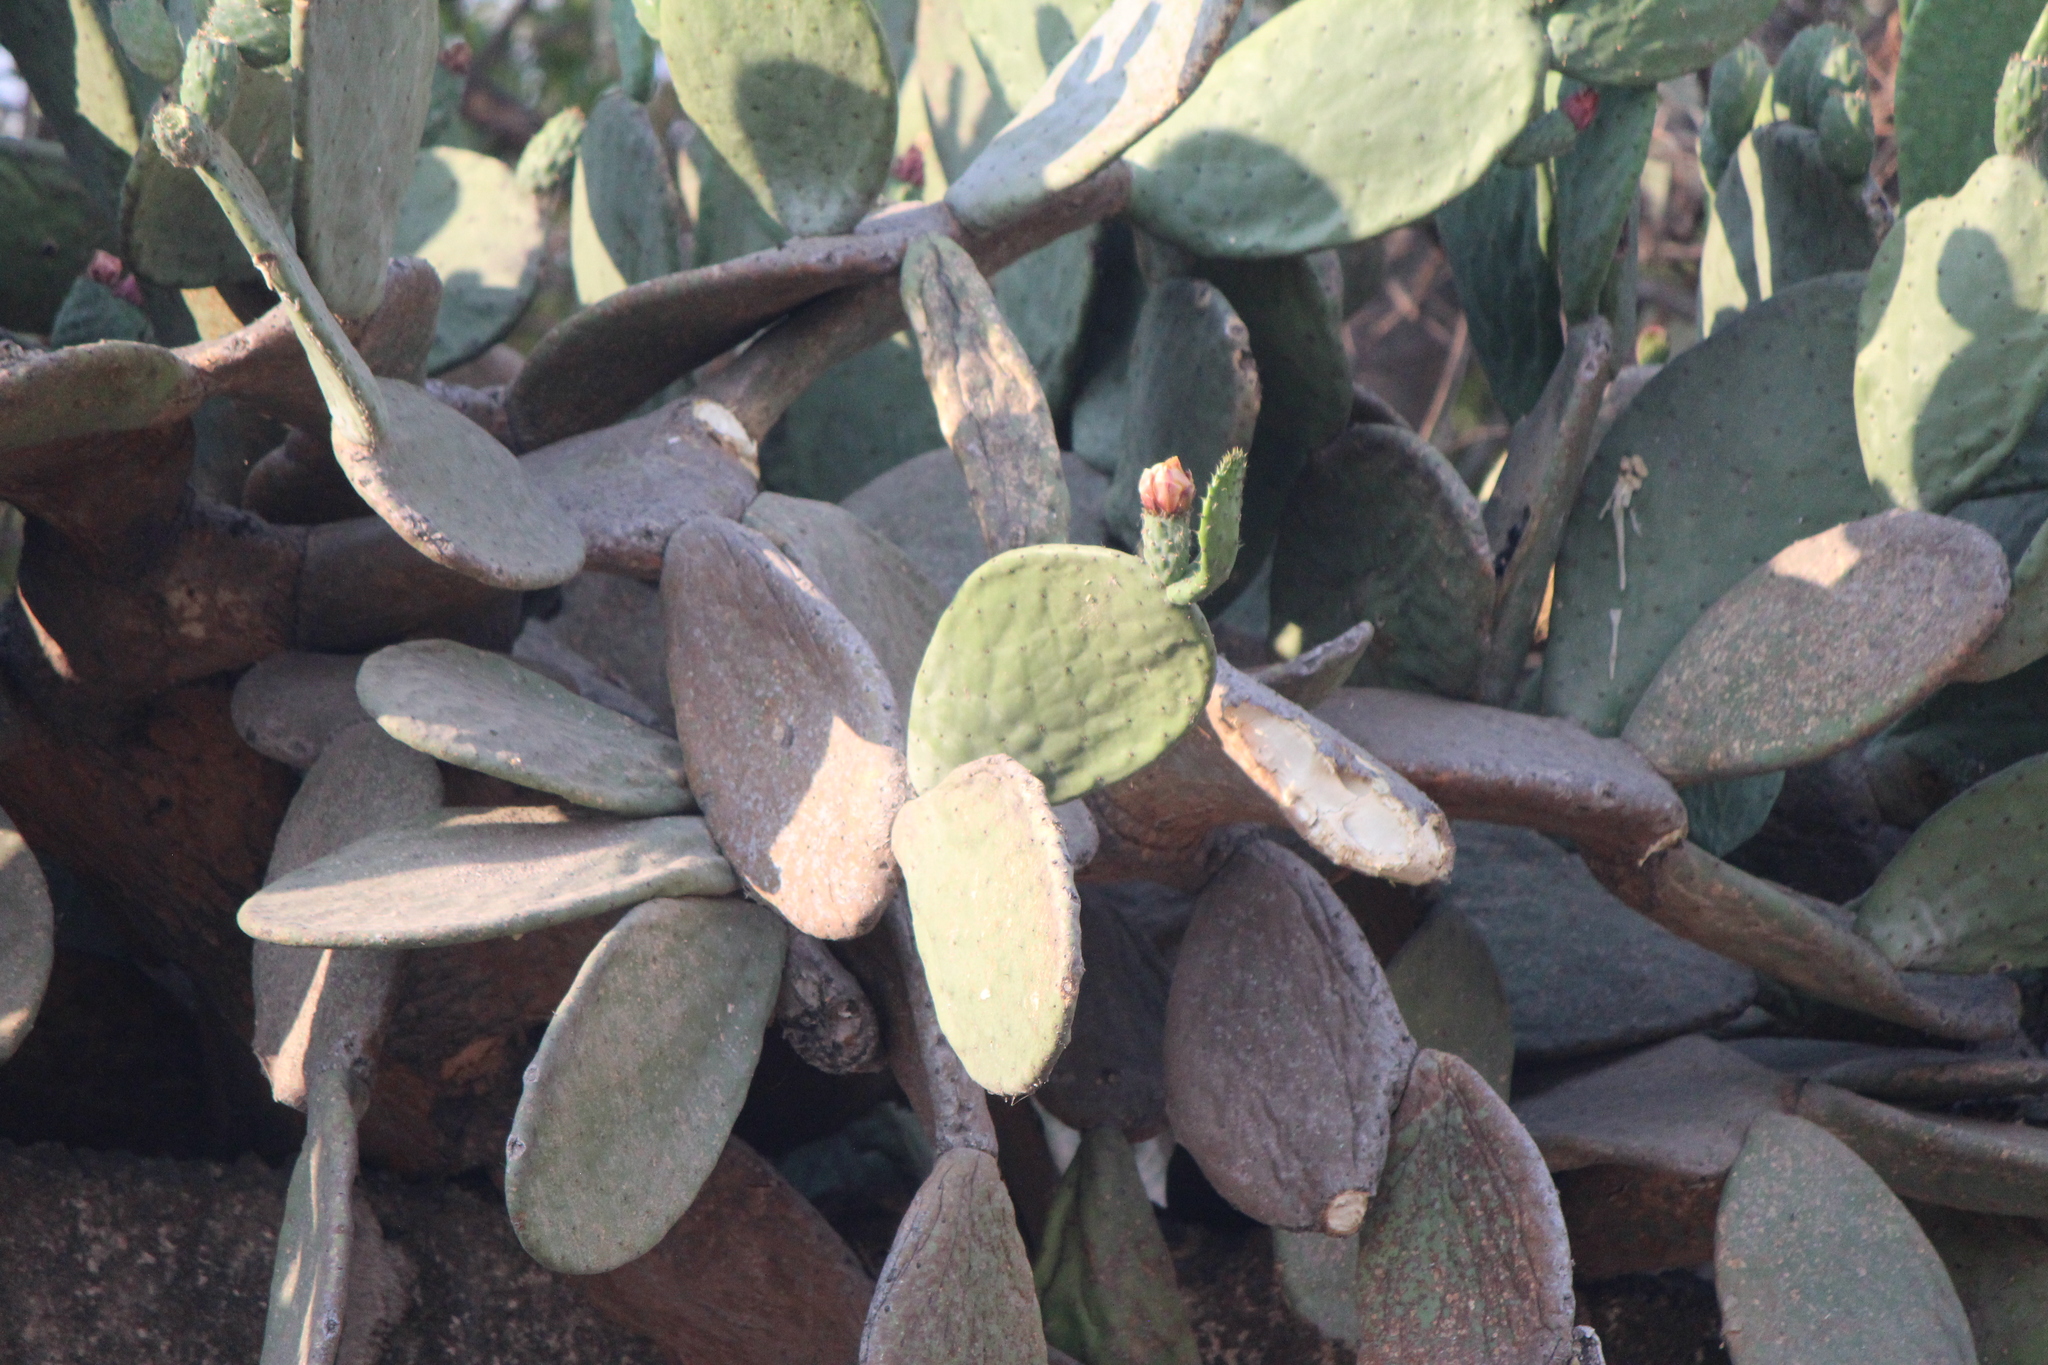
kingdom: Plantae
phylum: Tracheophyta
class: Magnoliopsida
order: Caryophyllales
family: Cactaceae
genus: Opuntia
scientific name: Opuntia ficus-indica
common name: Barbary fig
